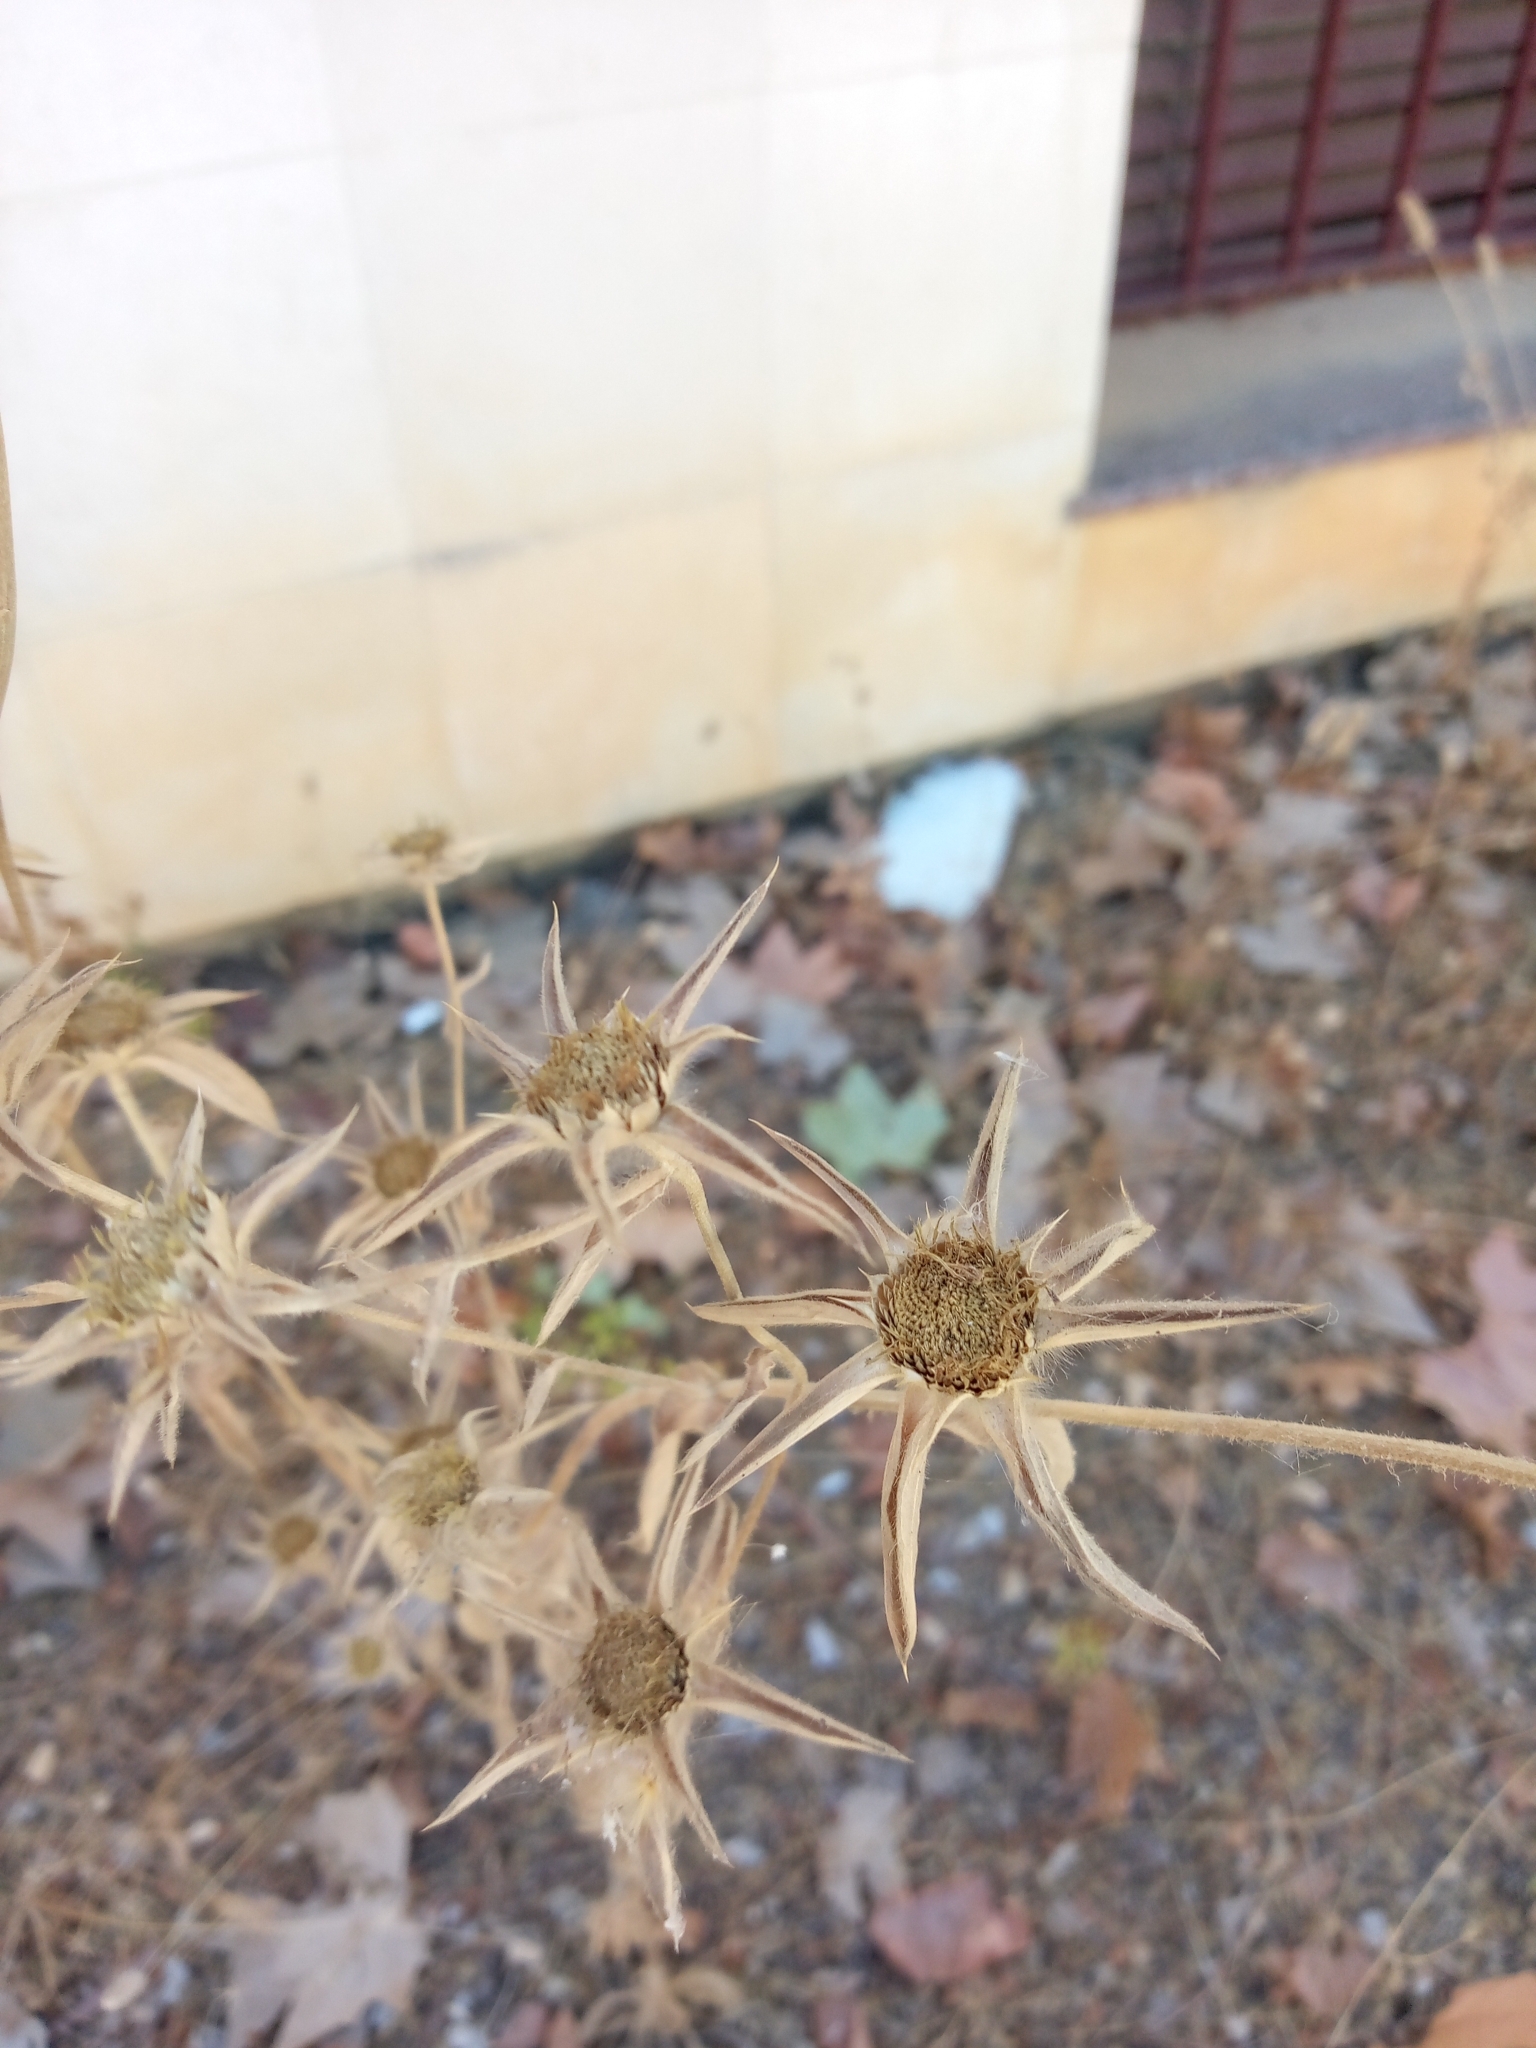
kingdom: Plantae
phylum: Tracheophyta
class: Magnoliopsida
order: Asterales
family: Asteraceae
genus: Pallenis
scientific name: Pallenis spinosa
